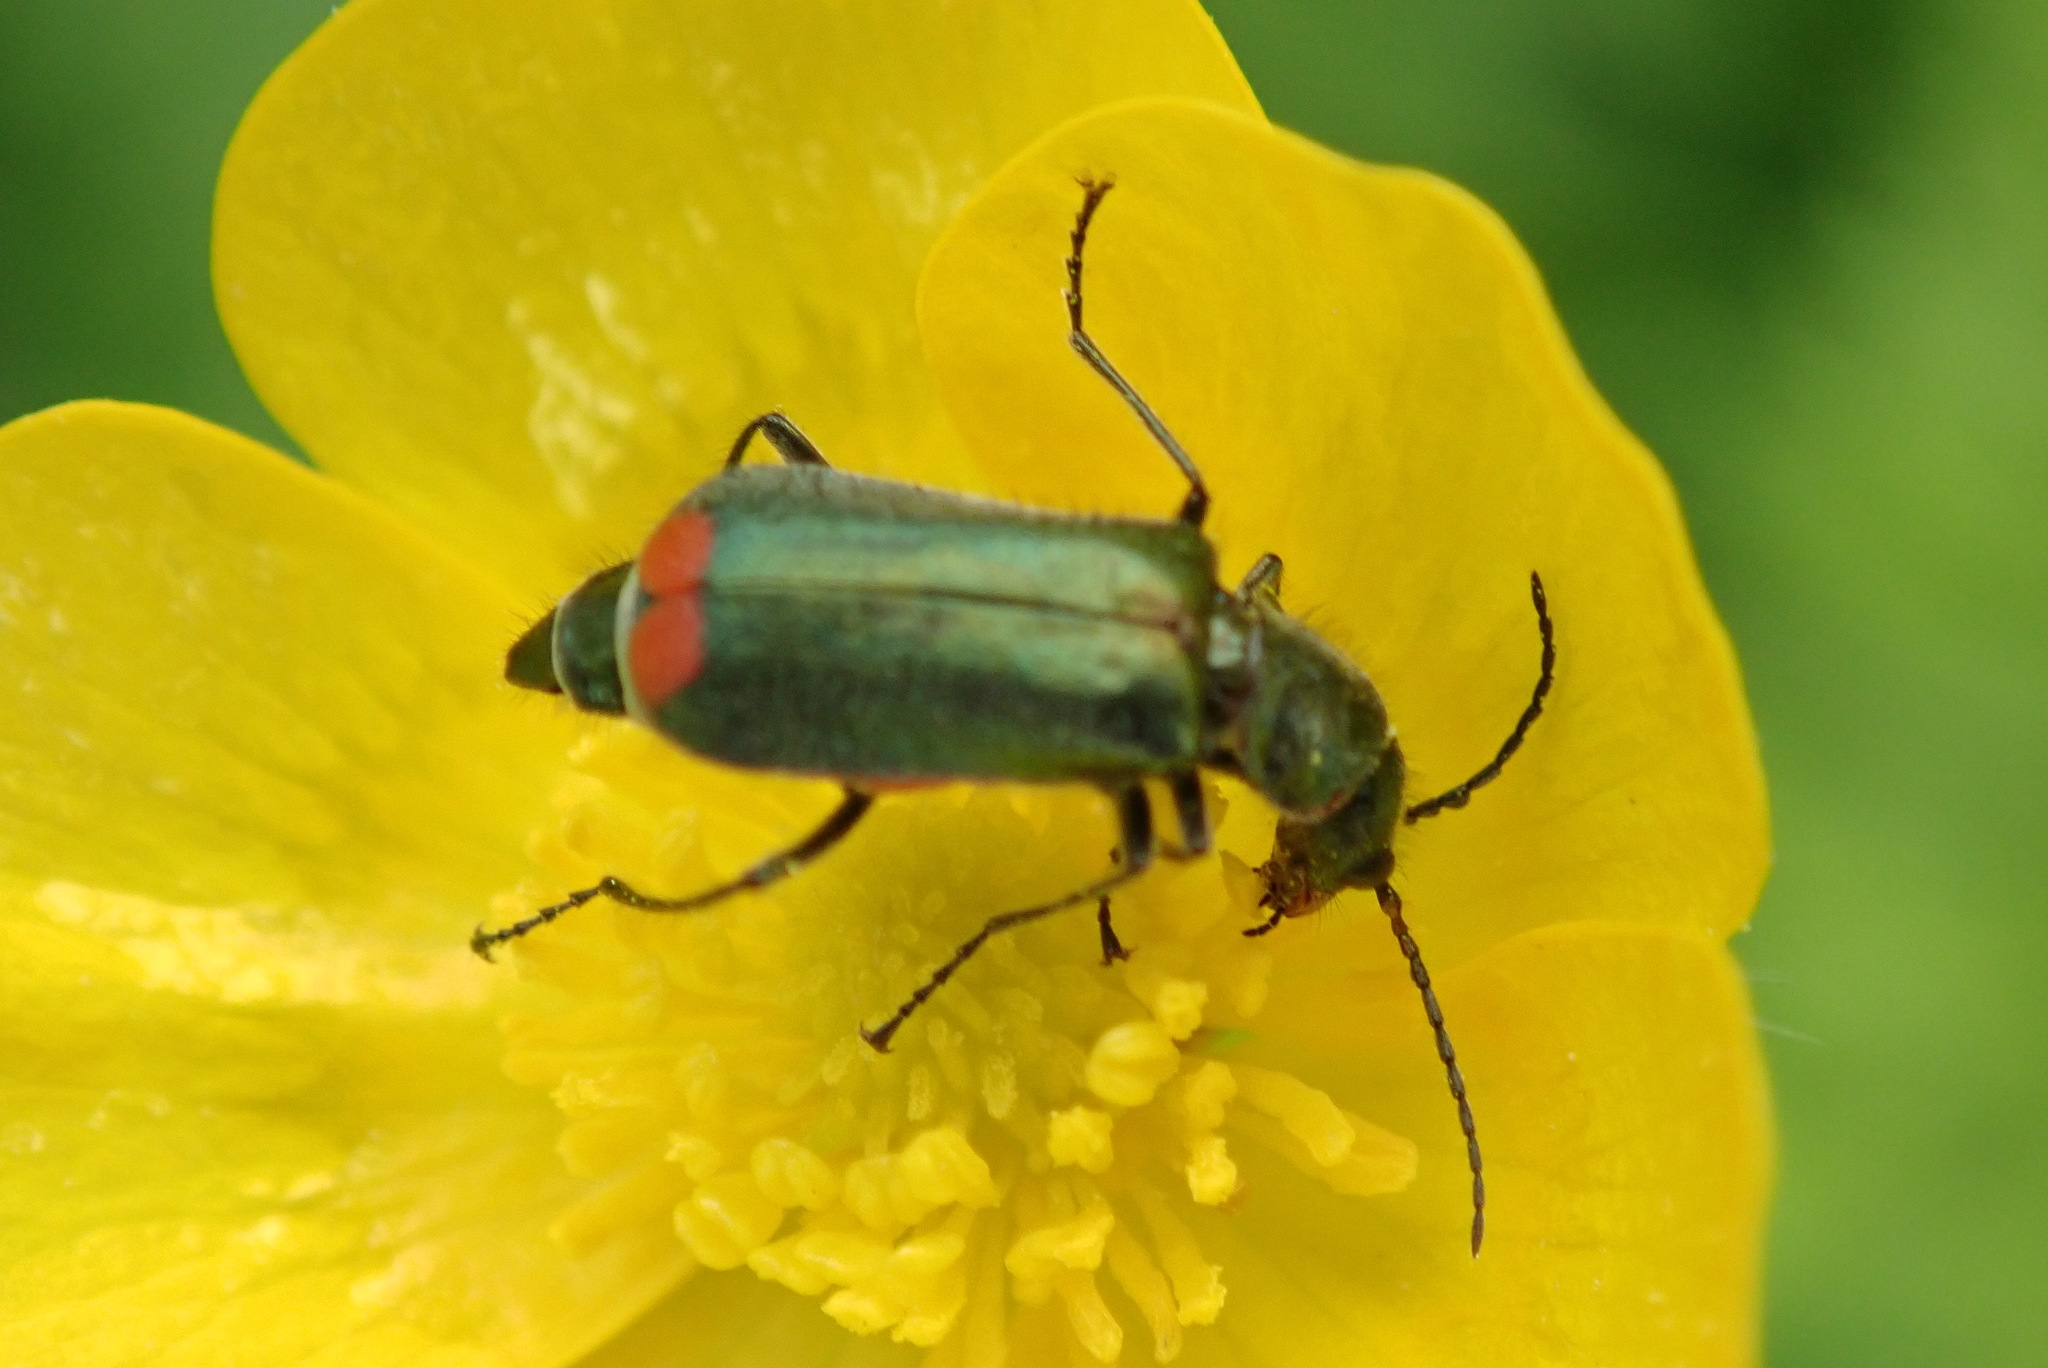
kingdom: Animalia
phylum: Arthropoda
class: Insecta
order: Coleoptera
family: Melyridae
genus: Malachius
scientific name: Malachius bipustulatus
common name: Malachite beetle
